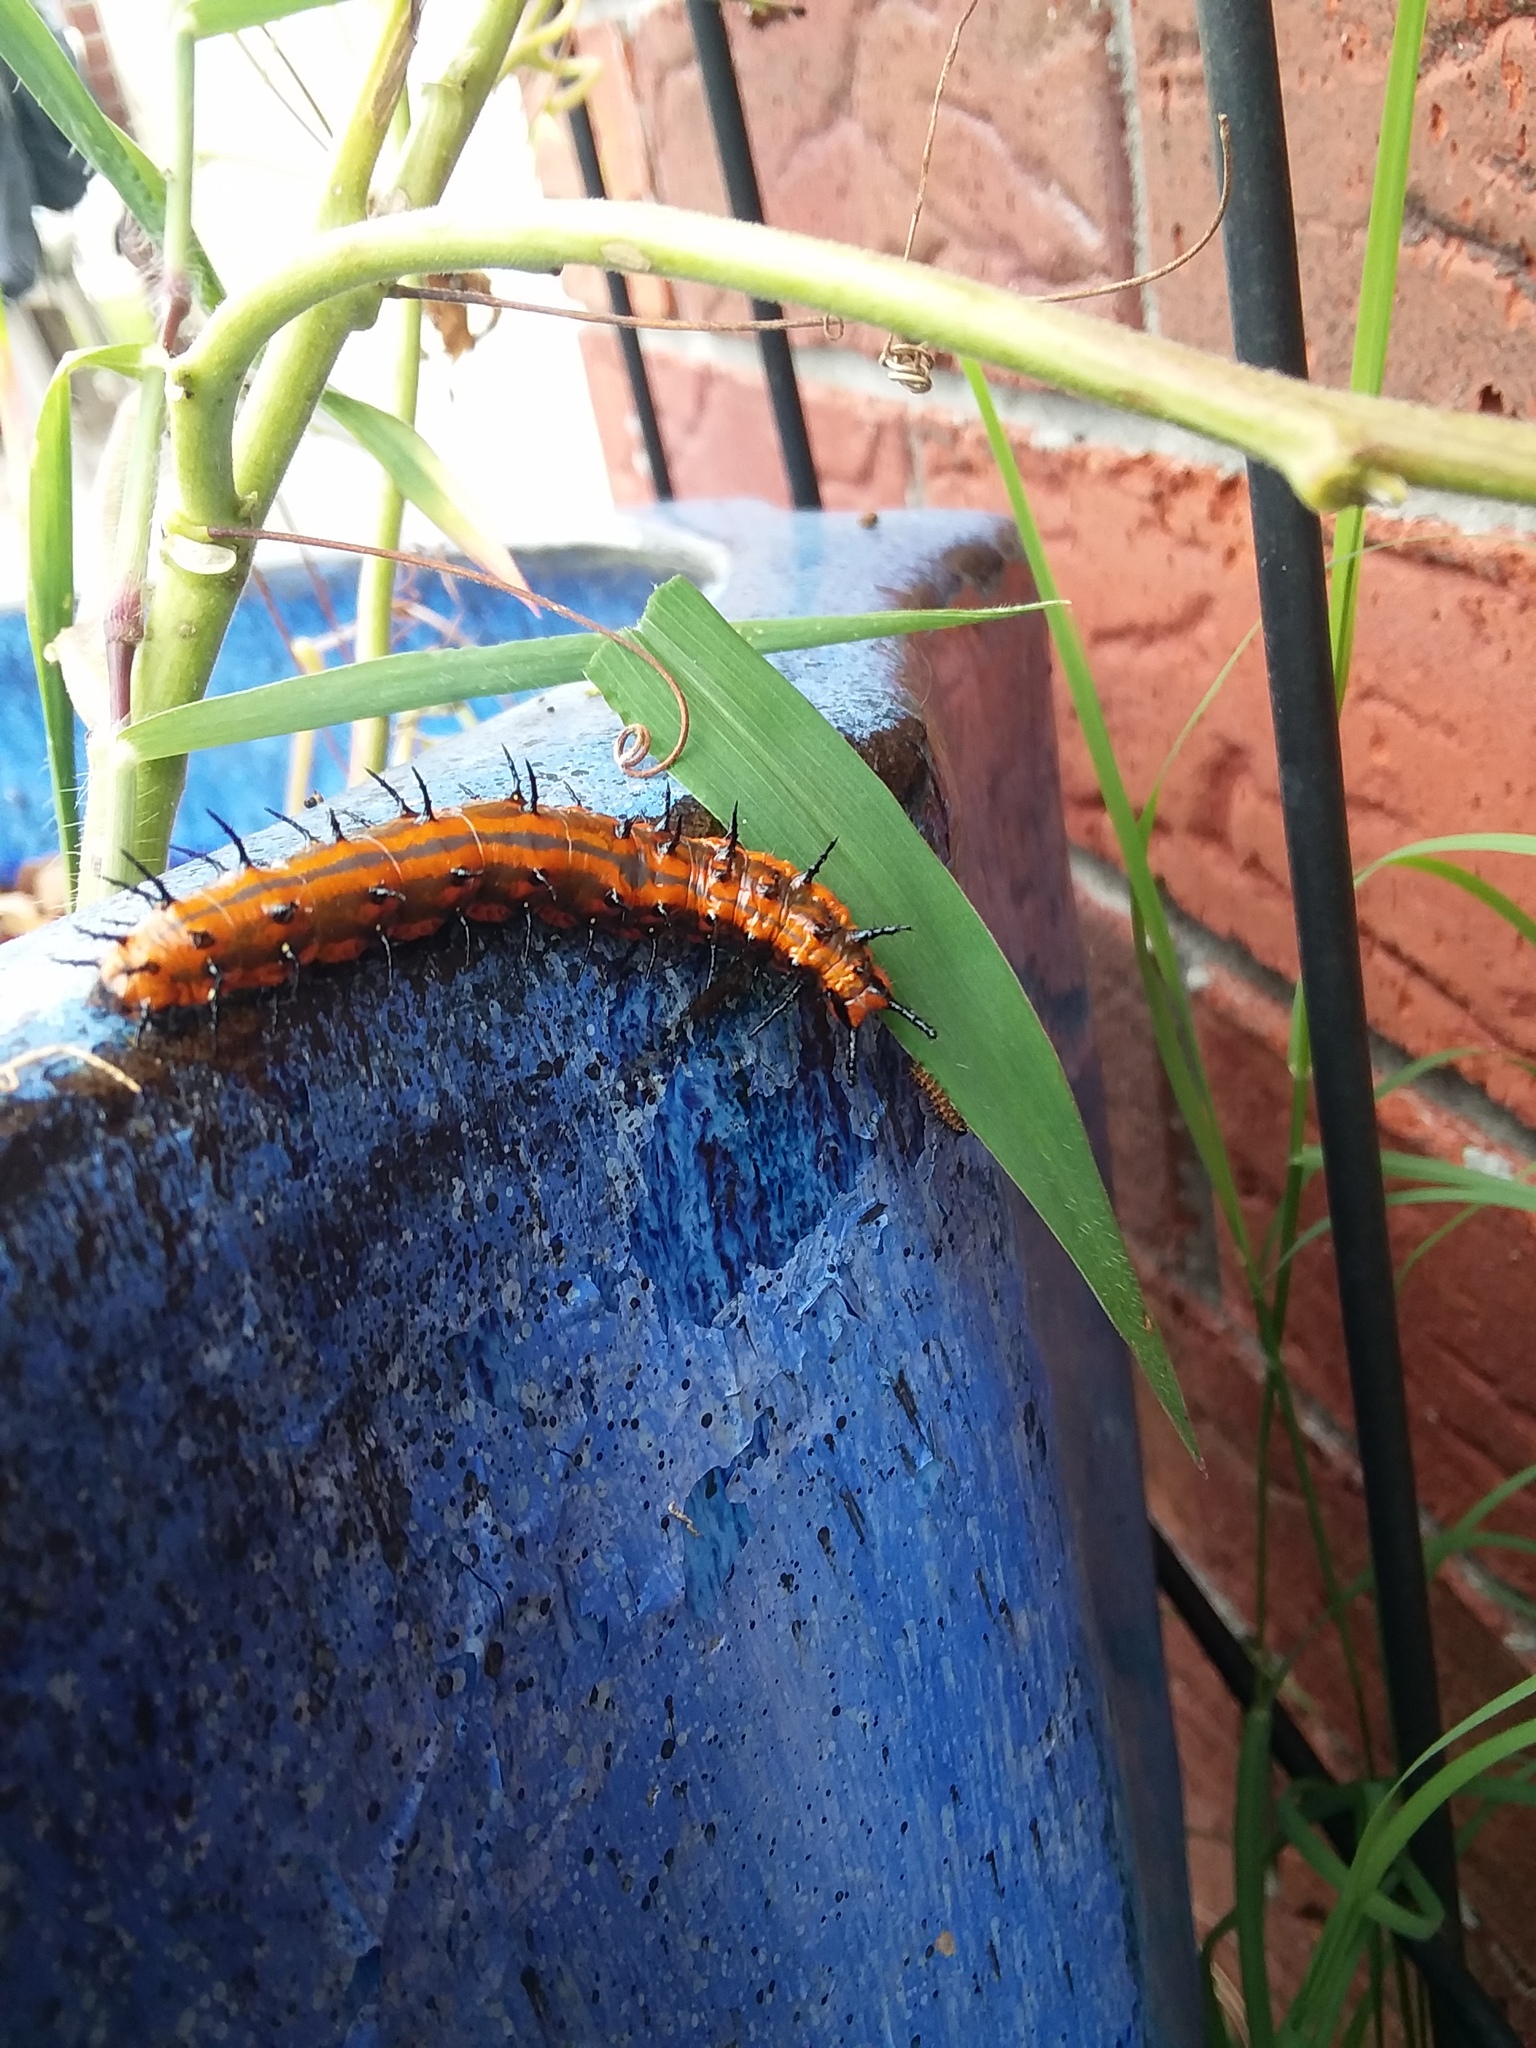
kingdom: Animalia
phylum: Arthropoda
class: Insecta
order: Lepidoptera
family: Nymphalidae
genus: Dione
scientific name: Dione vanillae
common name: Gulf fritillary
